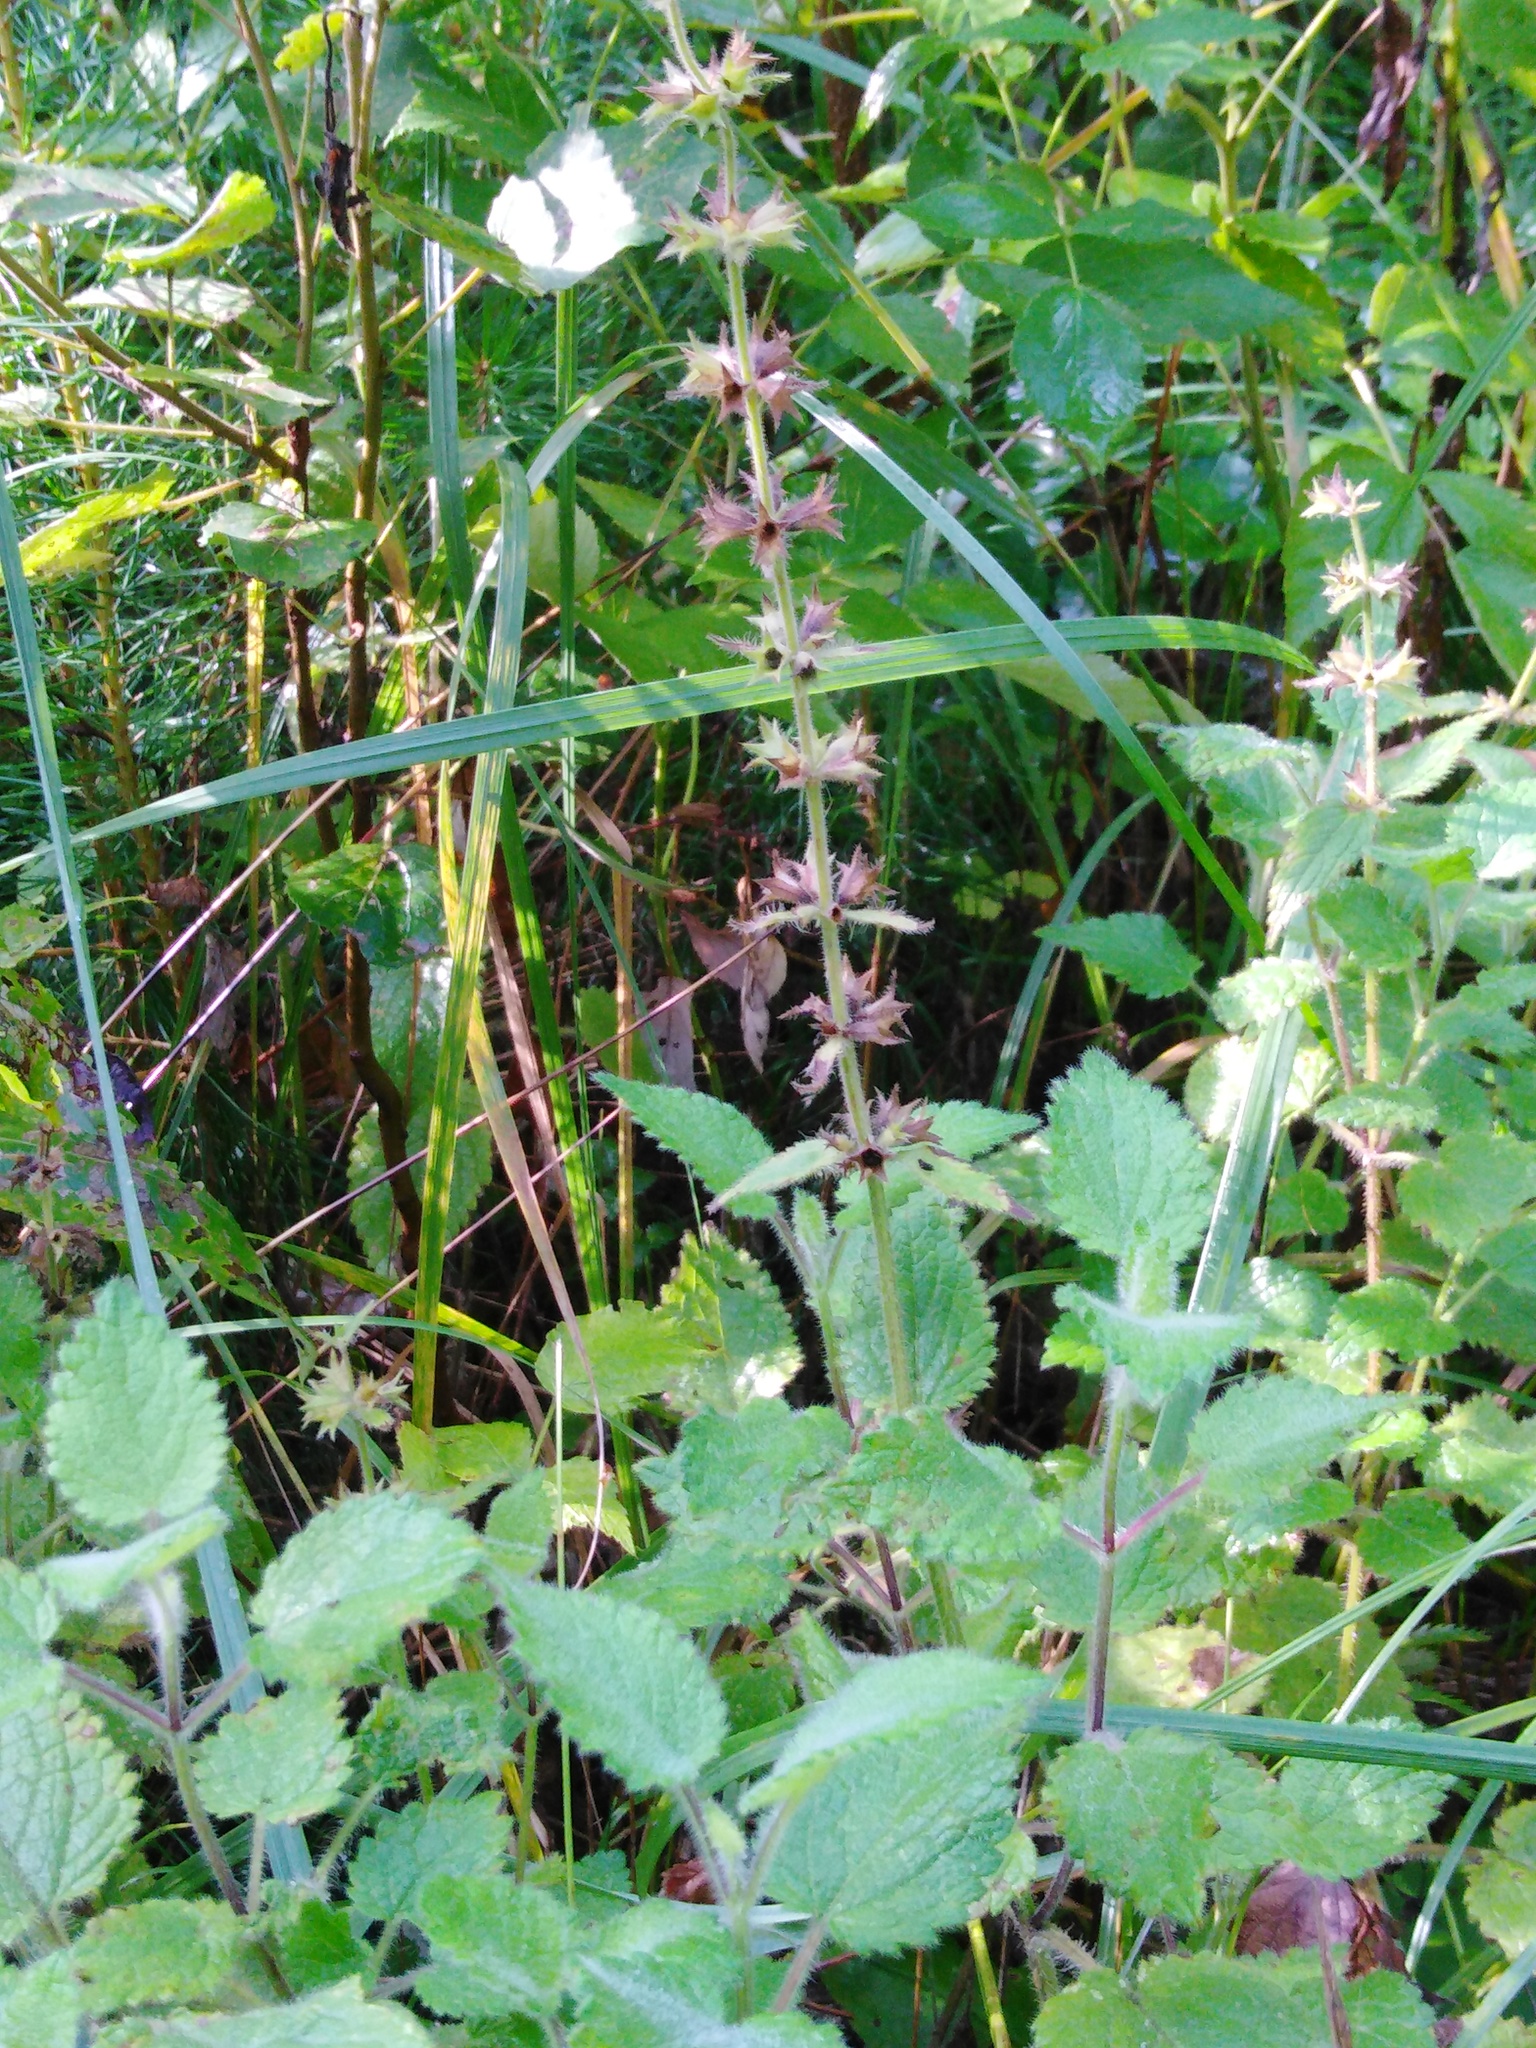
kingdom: Plantae
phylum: Tracheophyta
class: Magnoliopsida
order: Lamiales
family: Lamiaceae
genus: Stachys
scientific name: Stachys sylvatica
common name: Hedge woundwort
